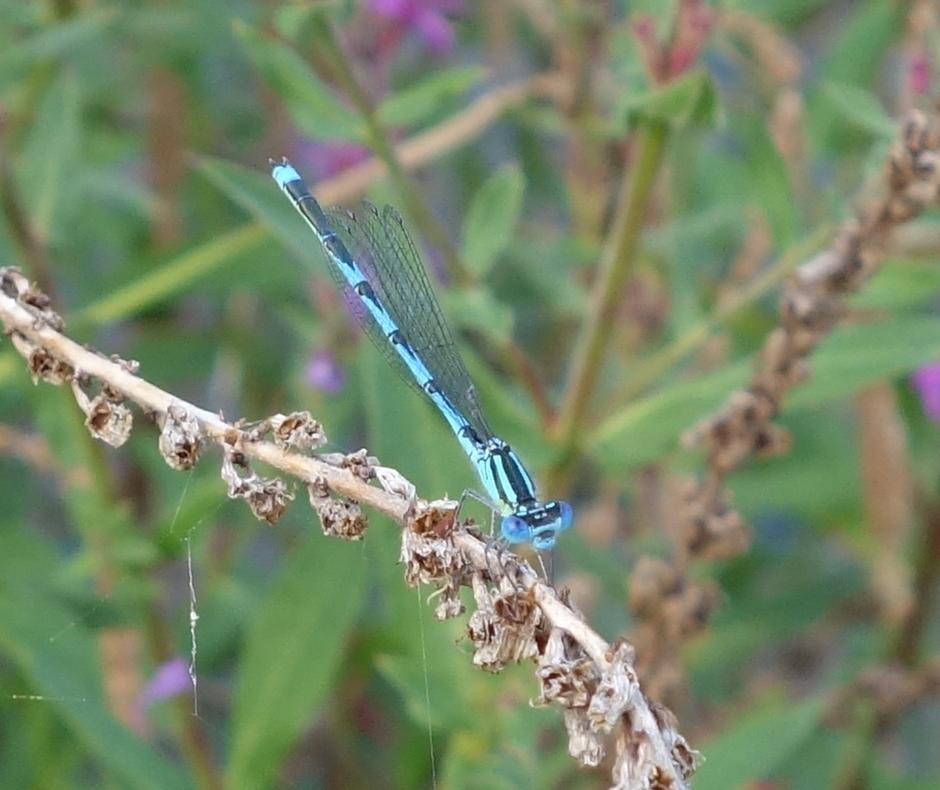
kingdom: Animalia
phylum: Arthropoda
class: Insecta
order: Odonata
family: Coenagrionidae
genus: Erythromma
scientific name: Erythromma lindenii
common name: Blue-eye
